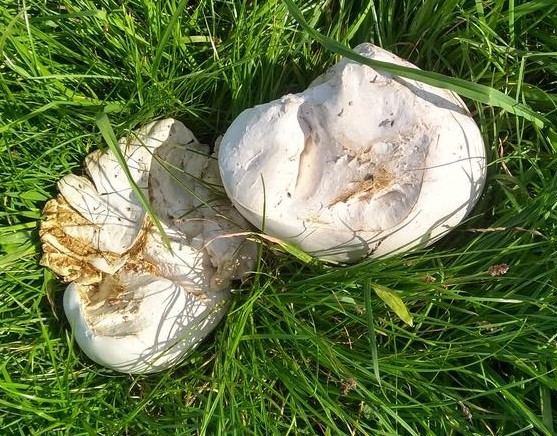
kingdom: Fungi
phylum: Basidiomycota
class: Agaricomycetes
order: Agaricales
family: Lycoperdaceae
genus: Calvatia
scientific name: Calvatia gigantea
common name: Giant puffball
